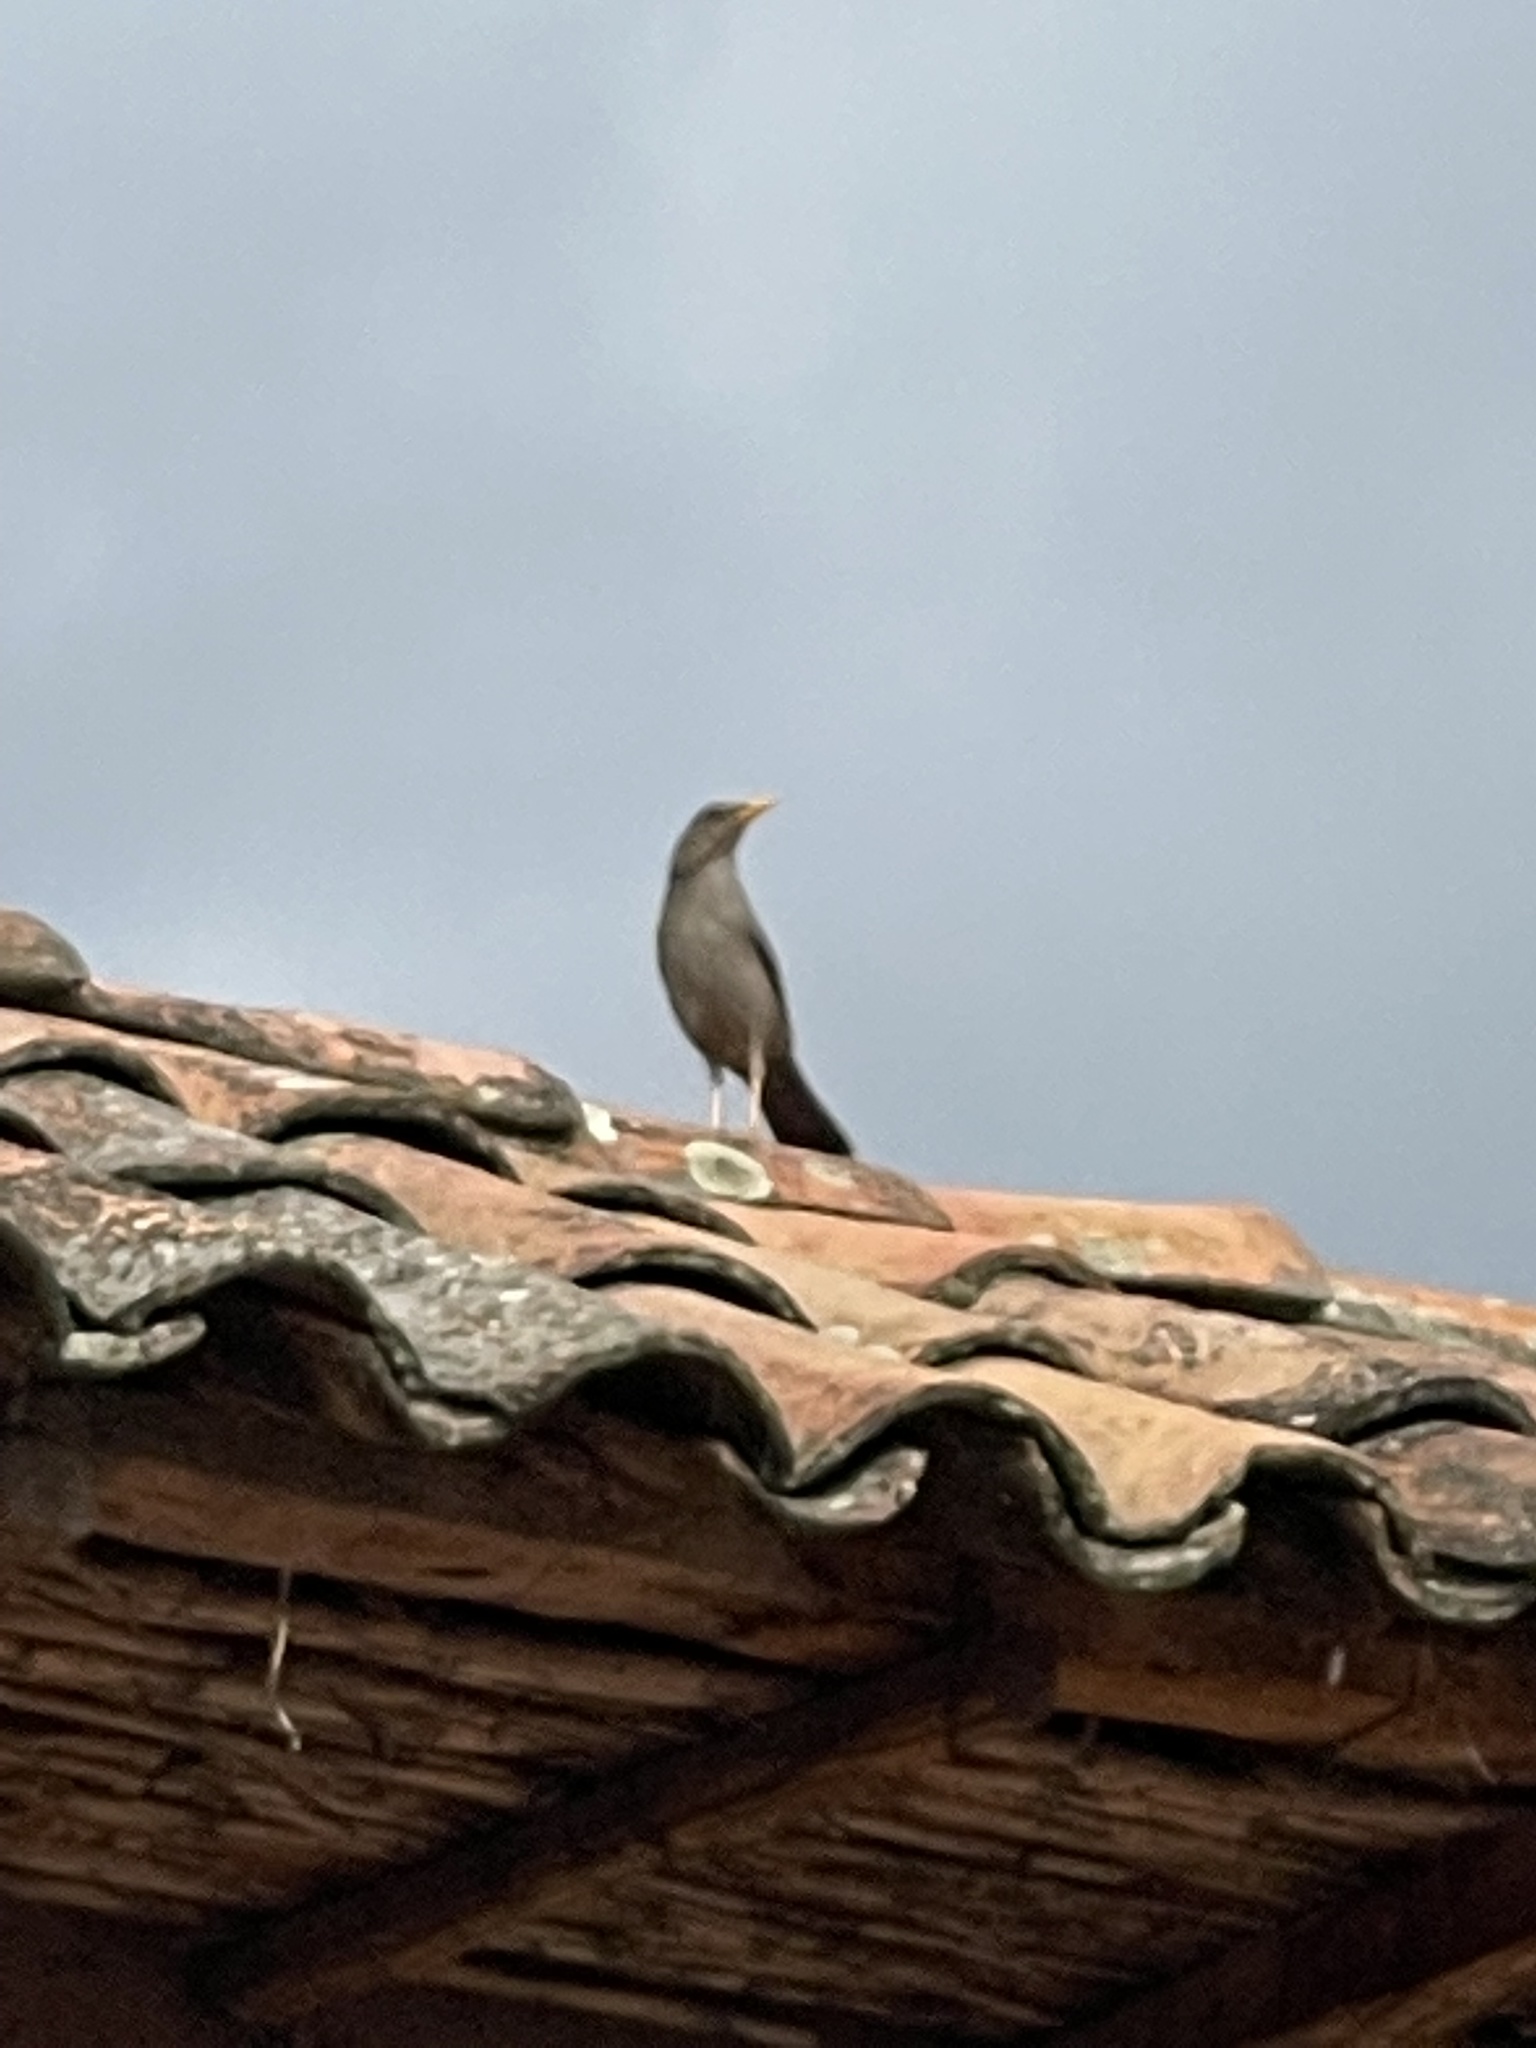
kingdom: Animalia
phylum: Chordata
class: Aves
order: Passeriformes
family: Turdidae
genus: Turdus
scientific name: Turdus chiguanco
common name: Chiguanco thrush
